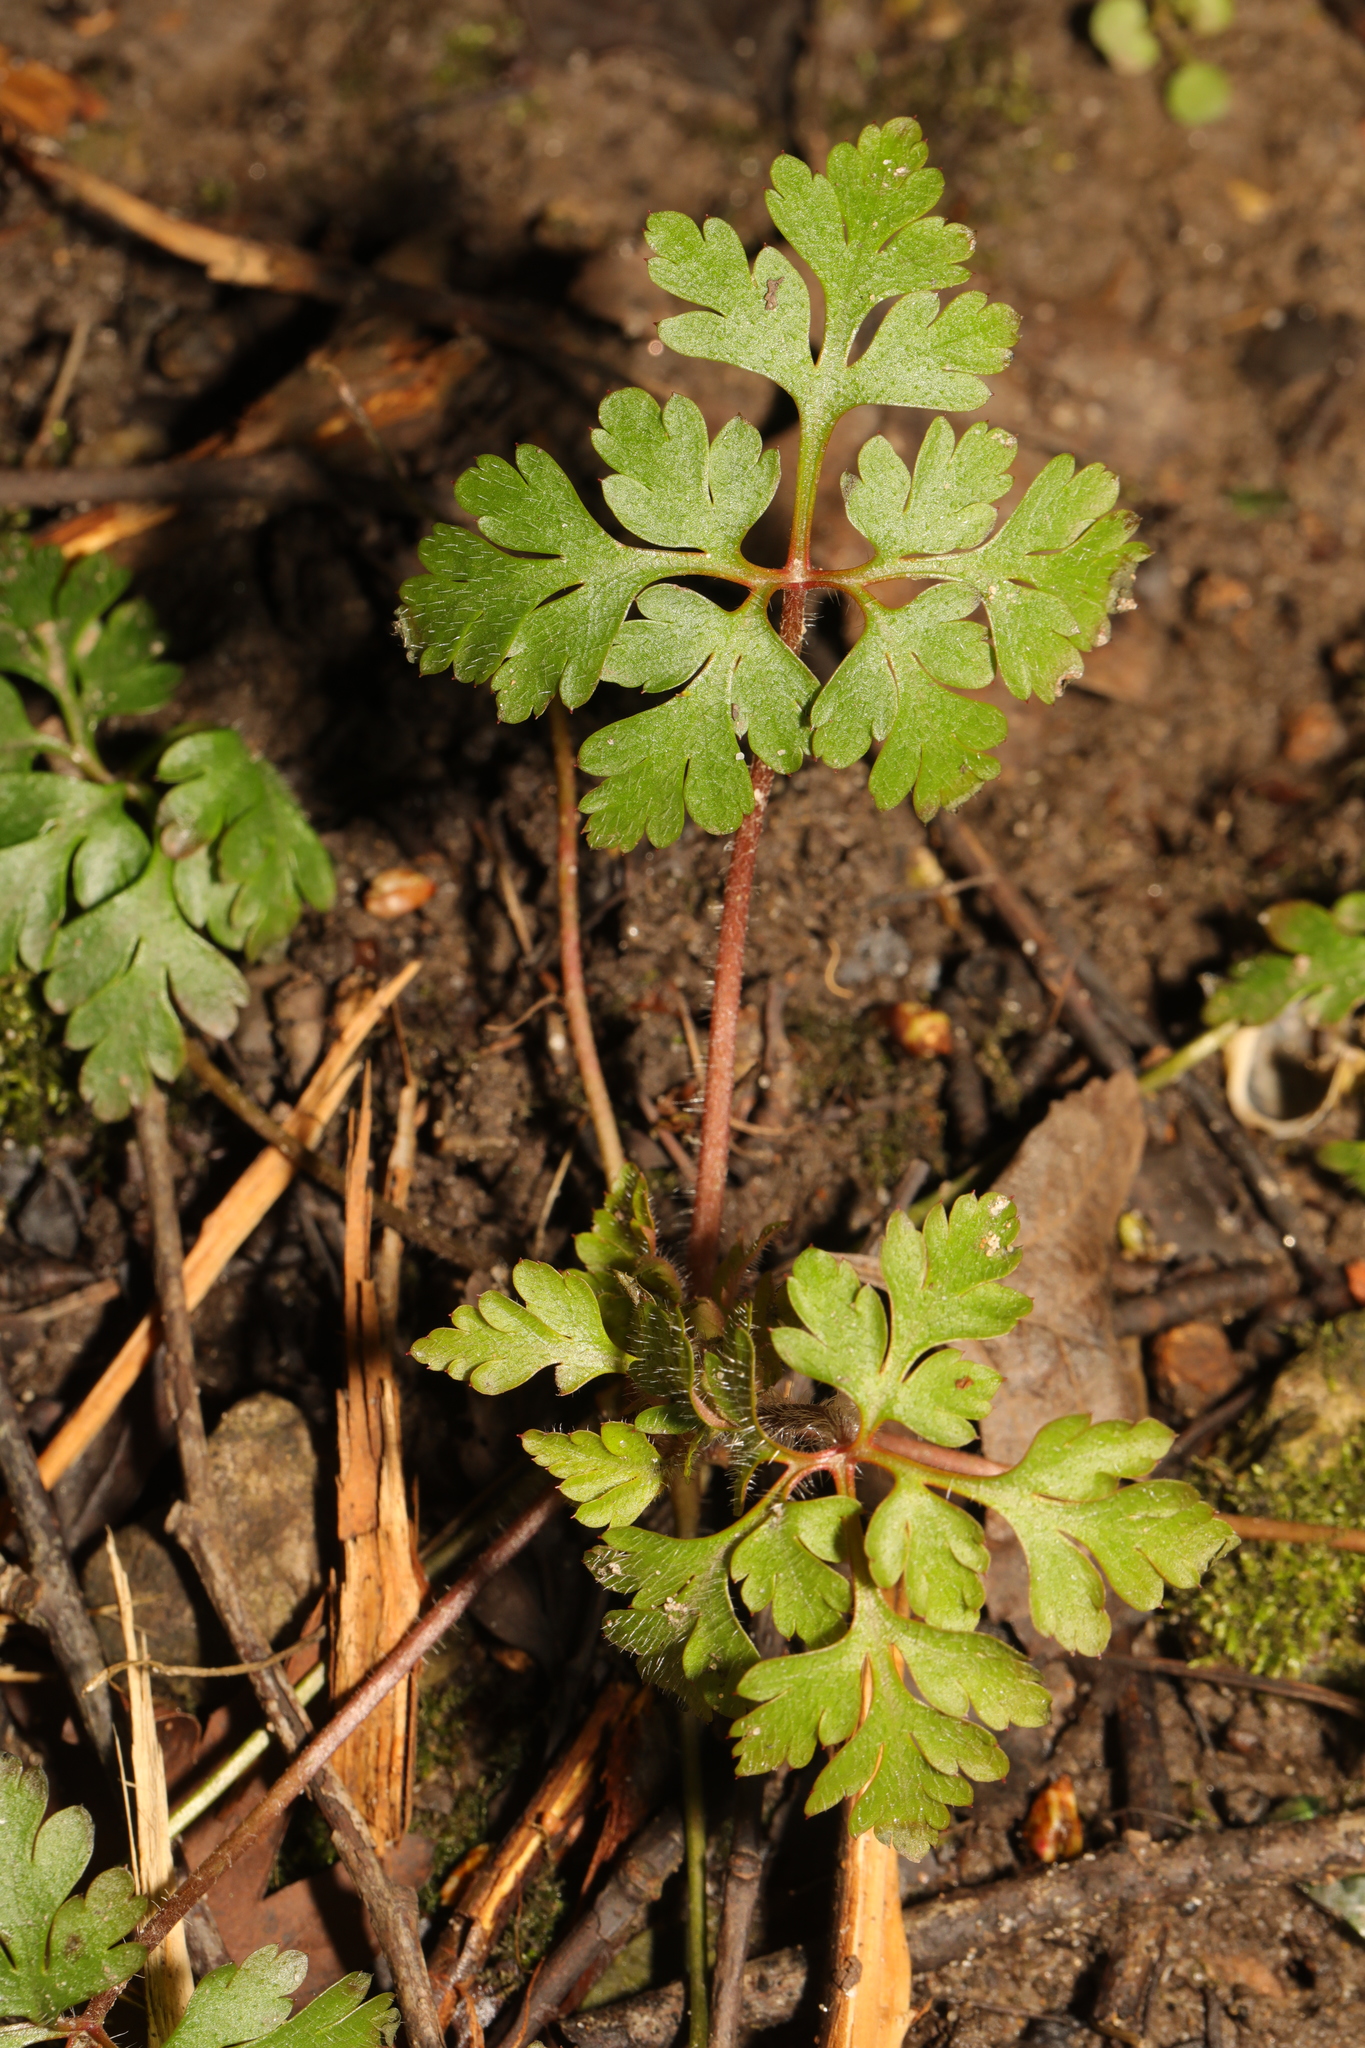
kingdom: Plantae
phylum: Tracheophyta
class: Magnoliopsida
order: Geraniales
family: Geraniaceae
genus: Geranium
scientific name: Geranium robertianum
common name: Herb-robert
